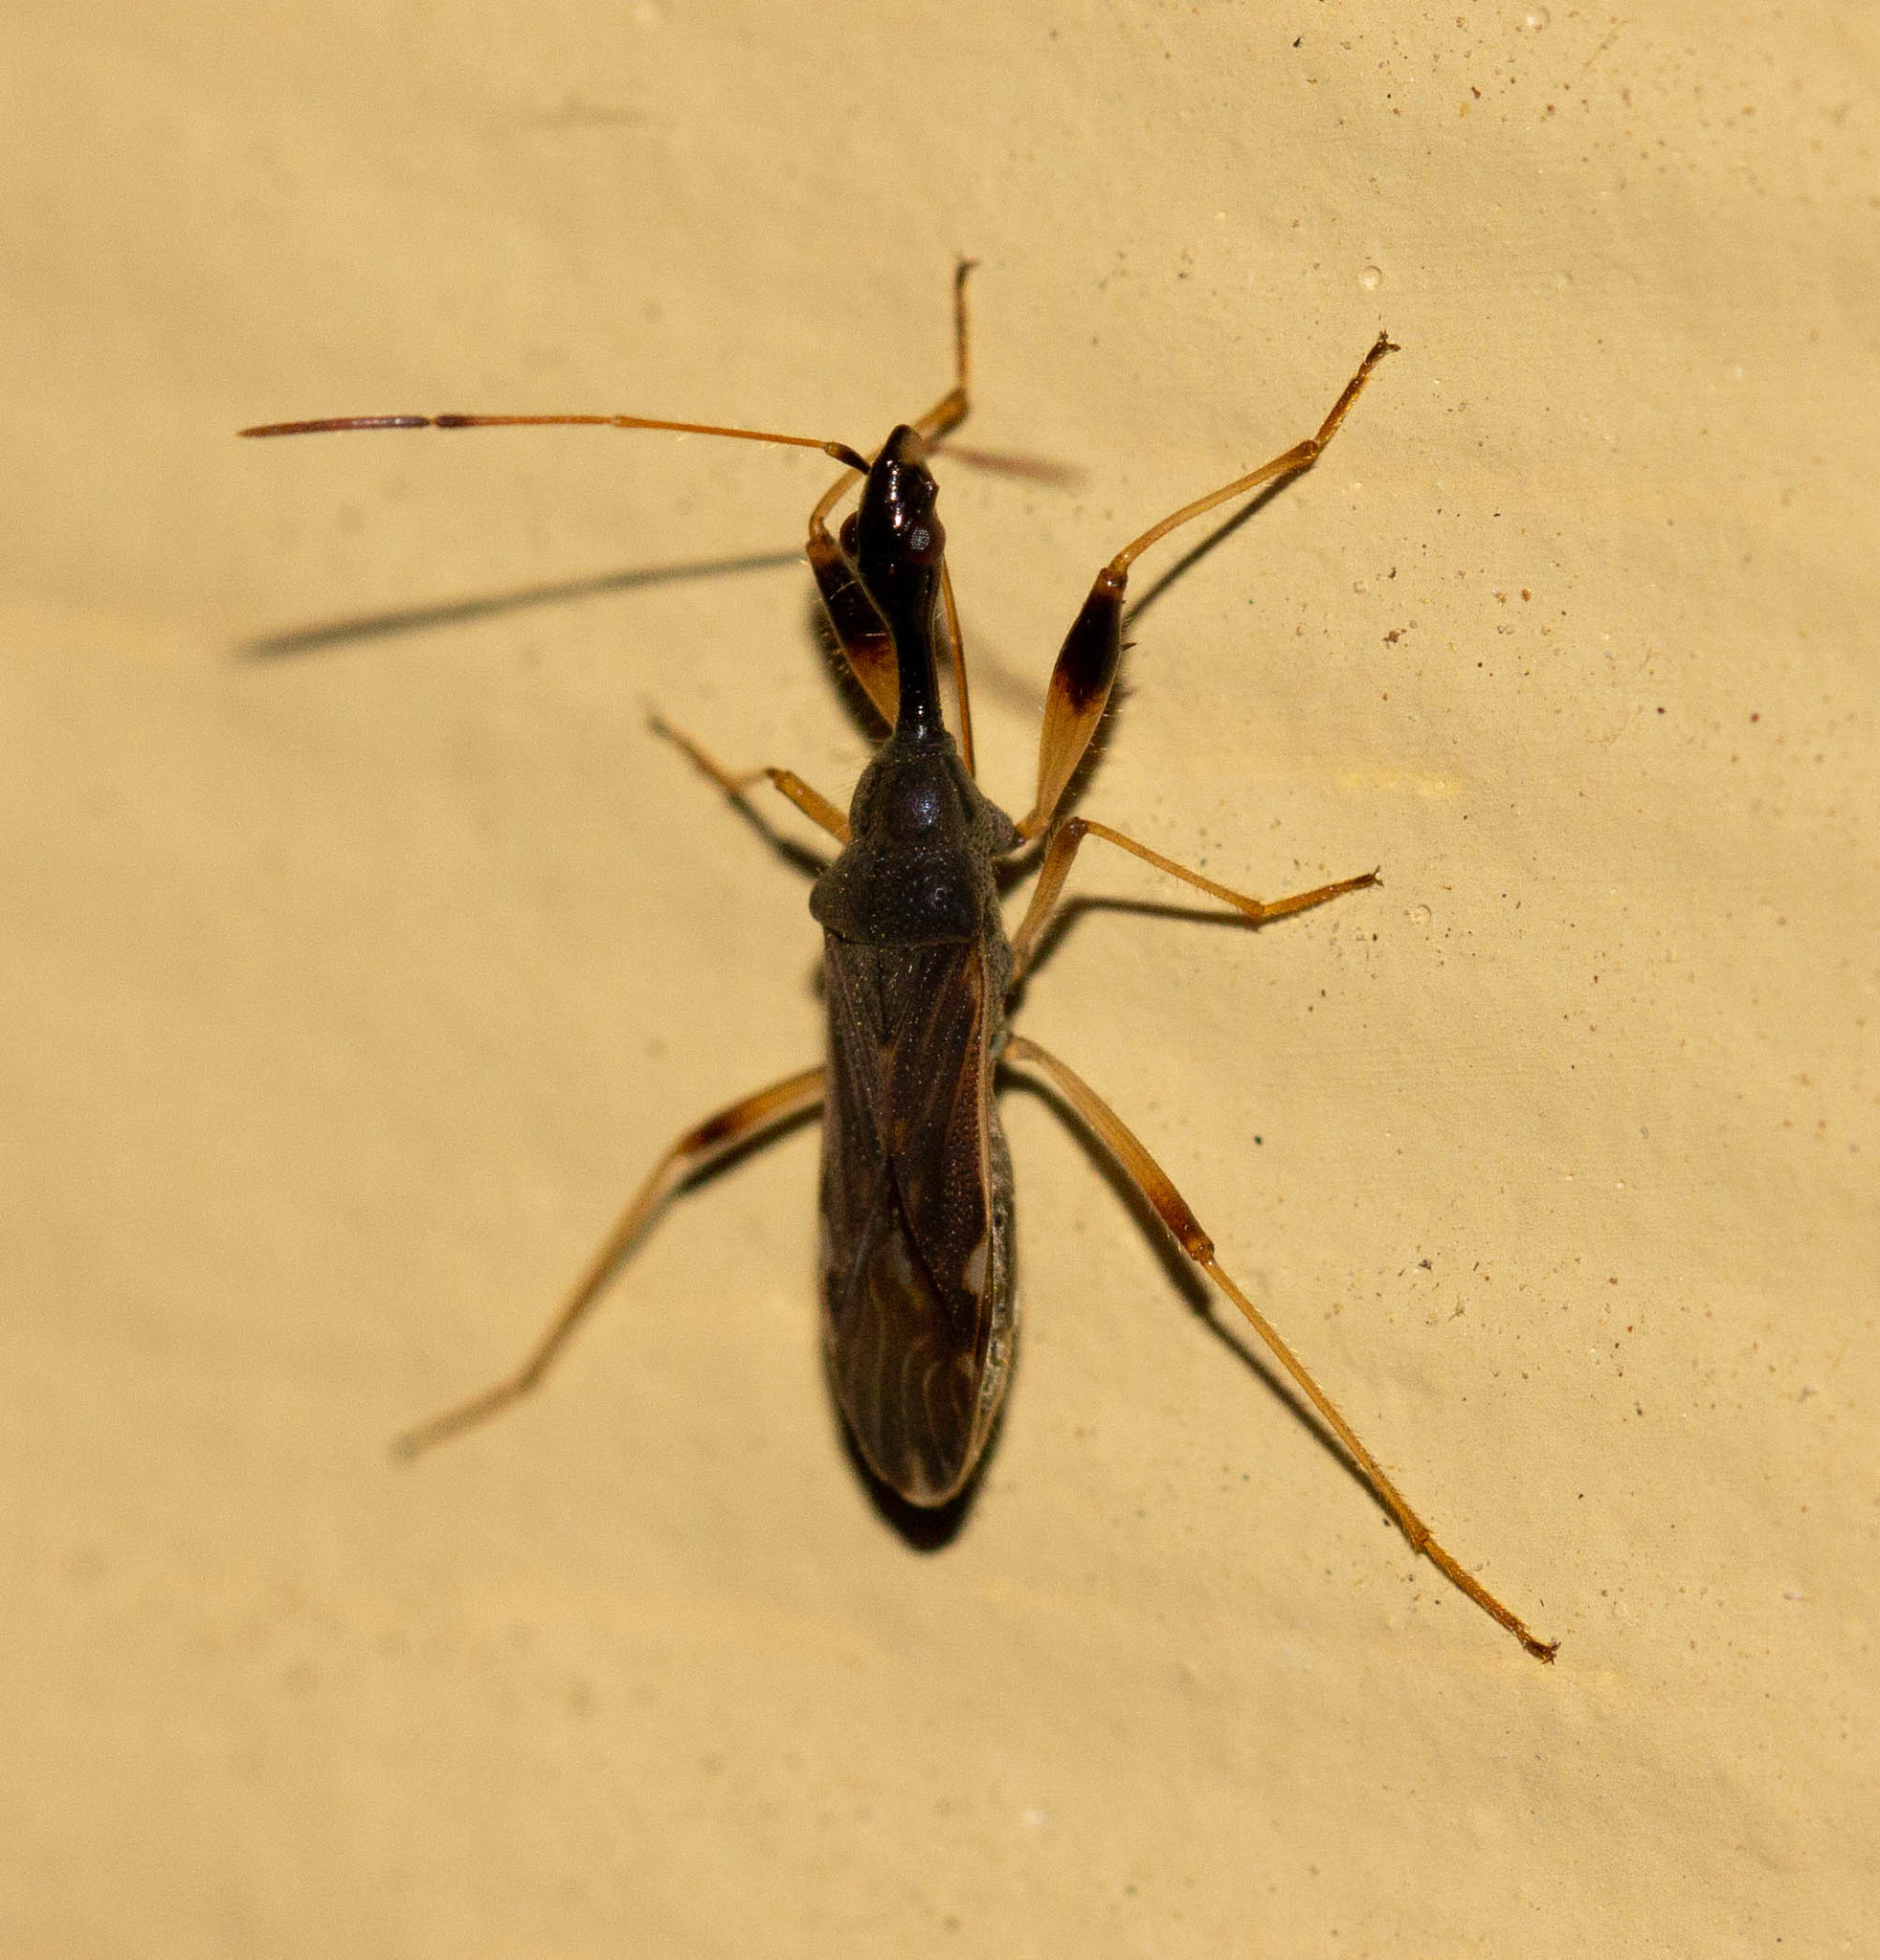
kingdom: Animalia
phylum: Arthropoda
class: Insecta
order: Hemiptera
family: Rhyparochromidae
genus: Myodocha
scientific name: Myodocha serripes
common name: Long-necked seed bug
